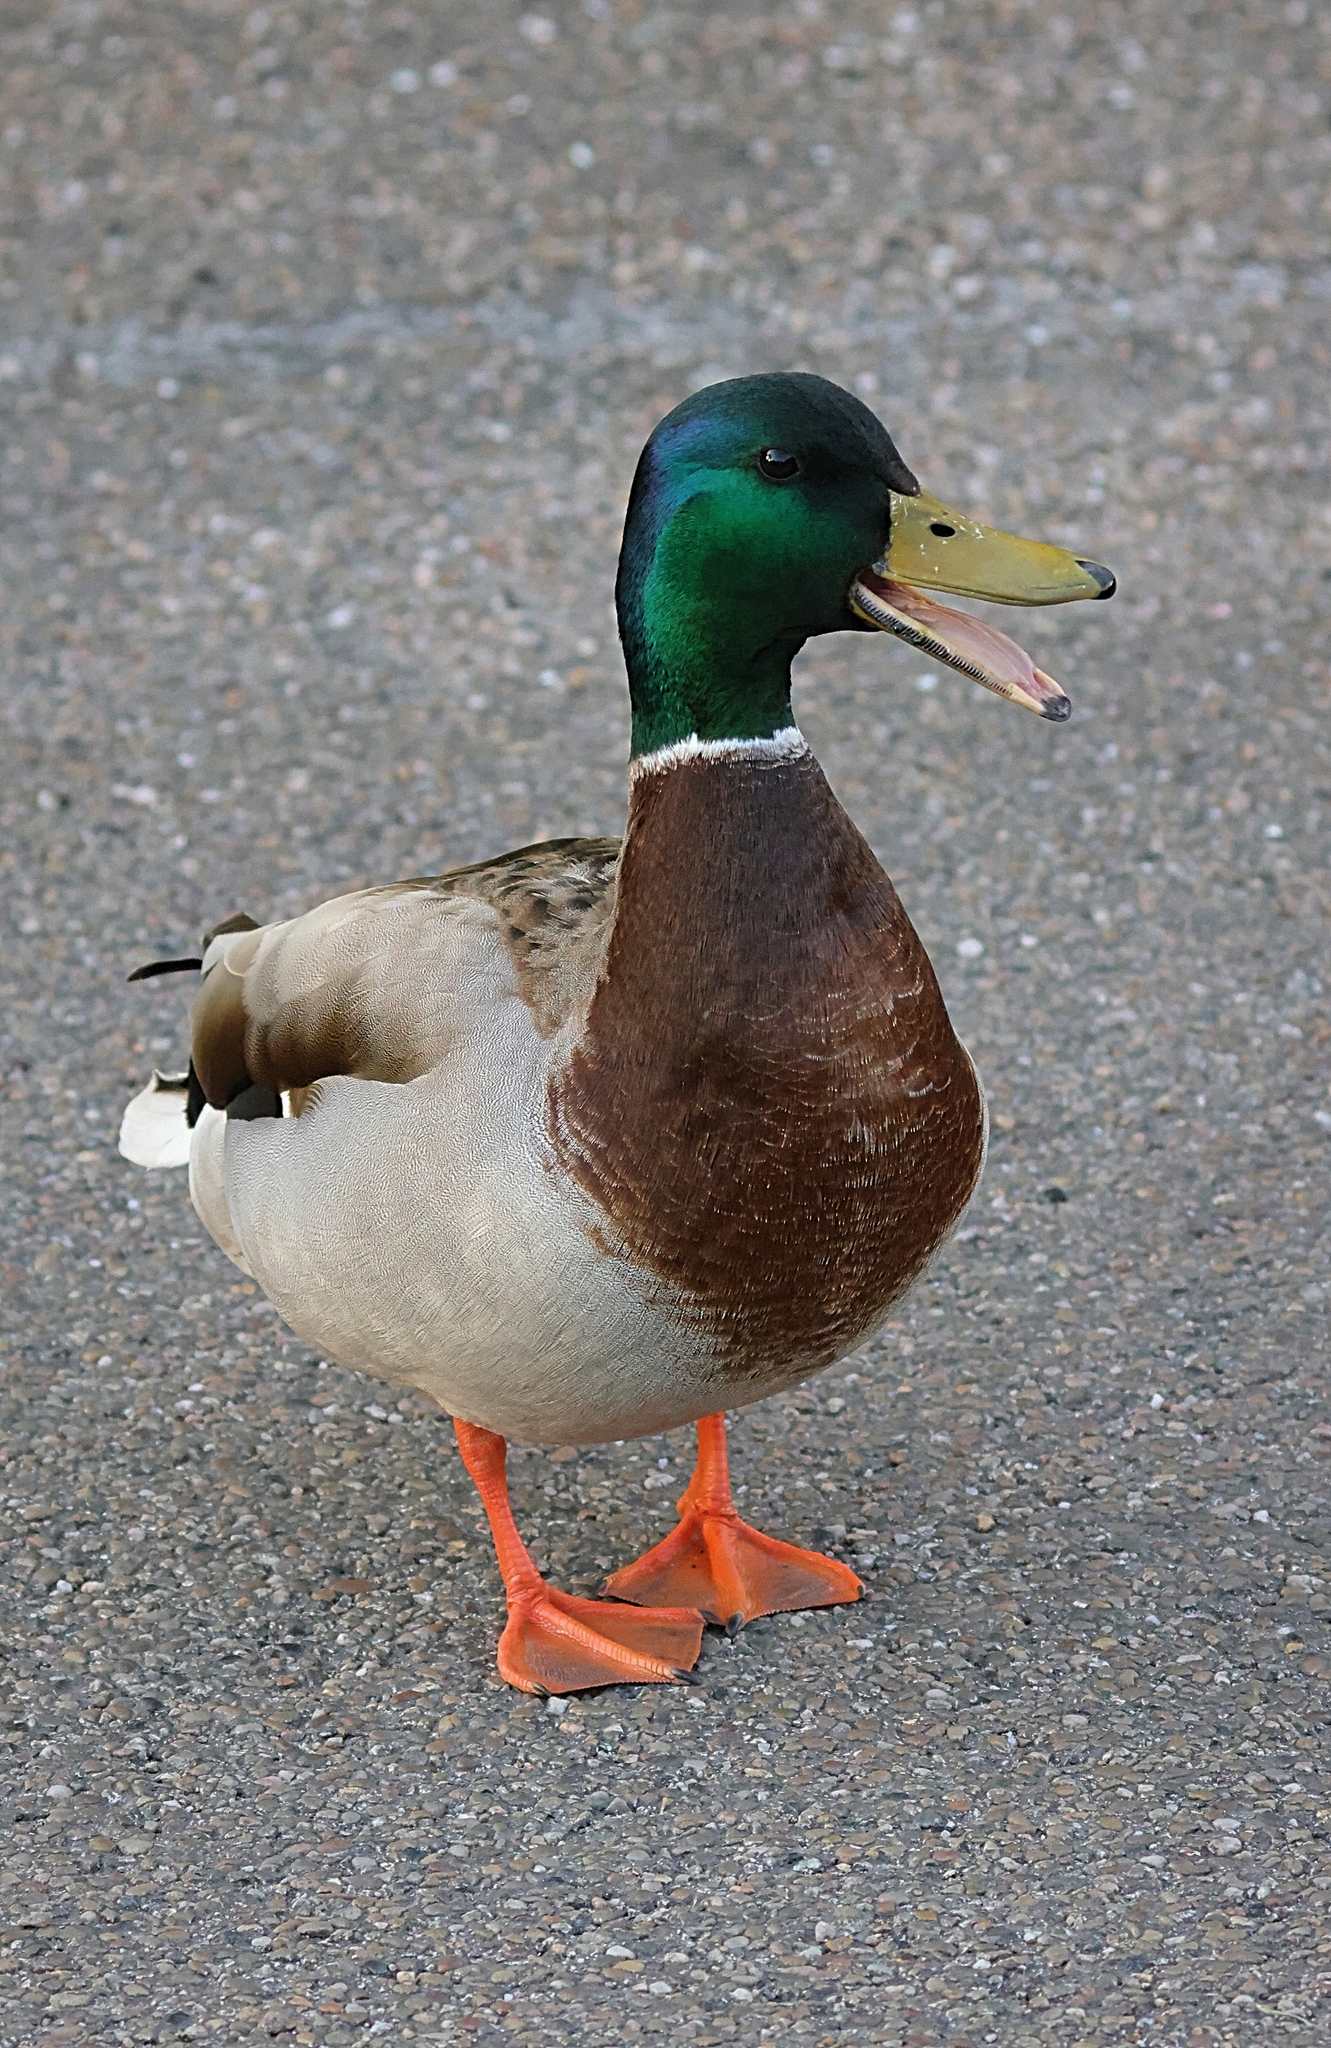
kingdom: Animalia
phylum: Chordata
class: Aves
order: Anseriformes
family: Anatidae
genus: Anas
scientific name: Anas platyrhynchos
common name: Mallard
